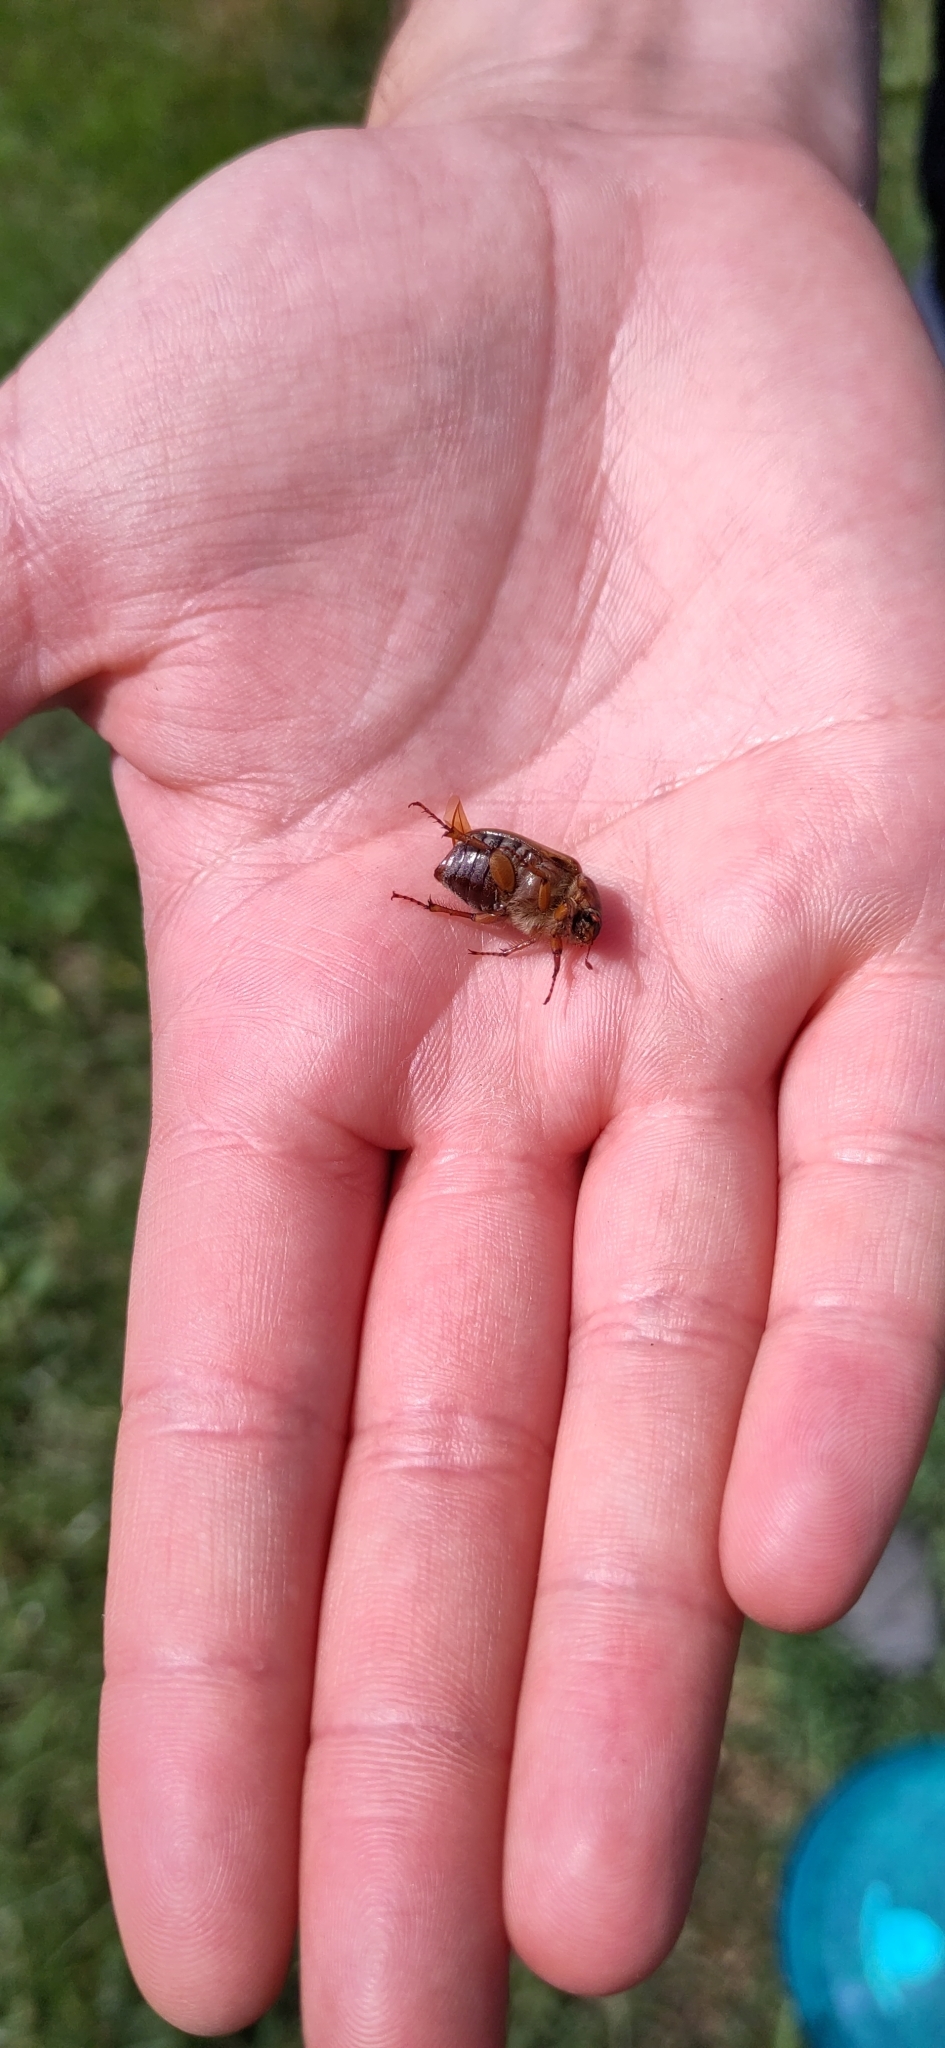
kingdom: Animalia
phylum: Arthropoda
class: Insecta
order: Coleoptera
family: Scarabaeidae
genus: Amphimallon
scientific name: Amphimallon solstitiale
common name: Summer chafer
